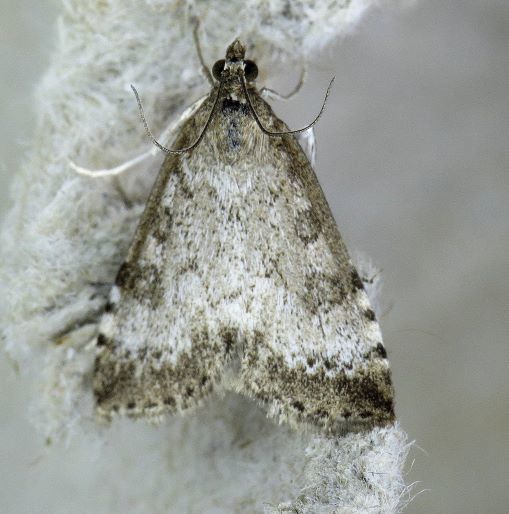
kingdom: Animalia
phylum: Arthropoda
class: Insecta
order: Lepidoptera
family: Crambidae
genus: Udea
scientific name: Udea inquinatalis
